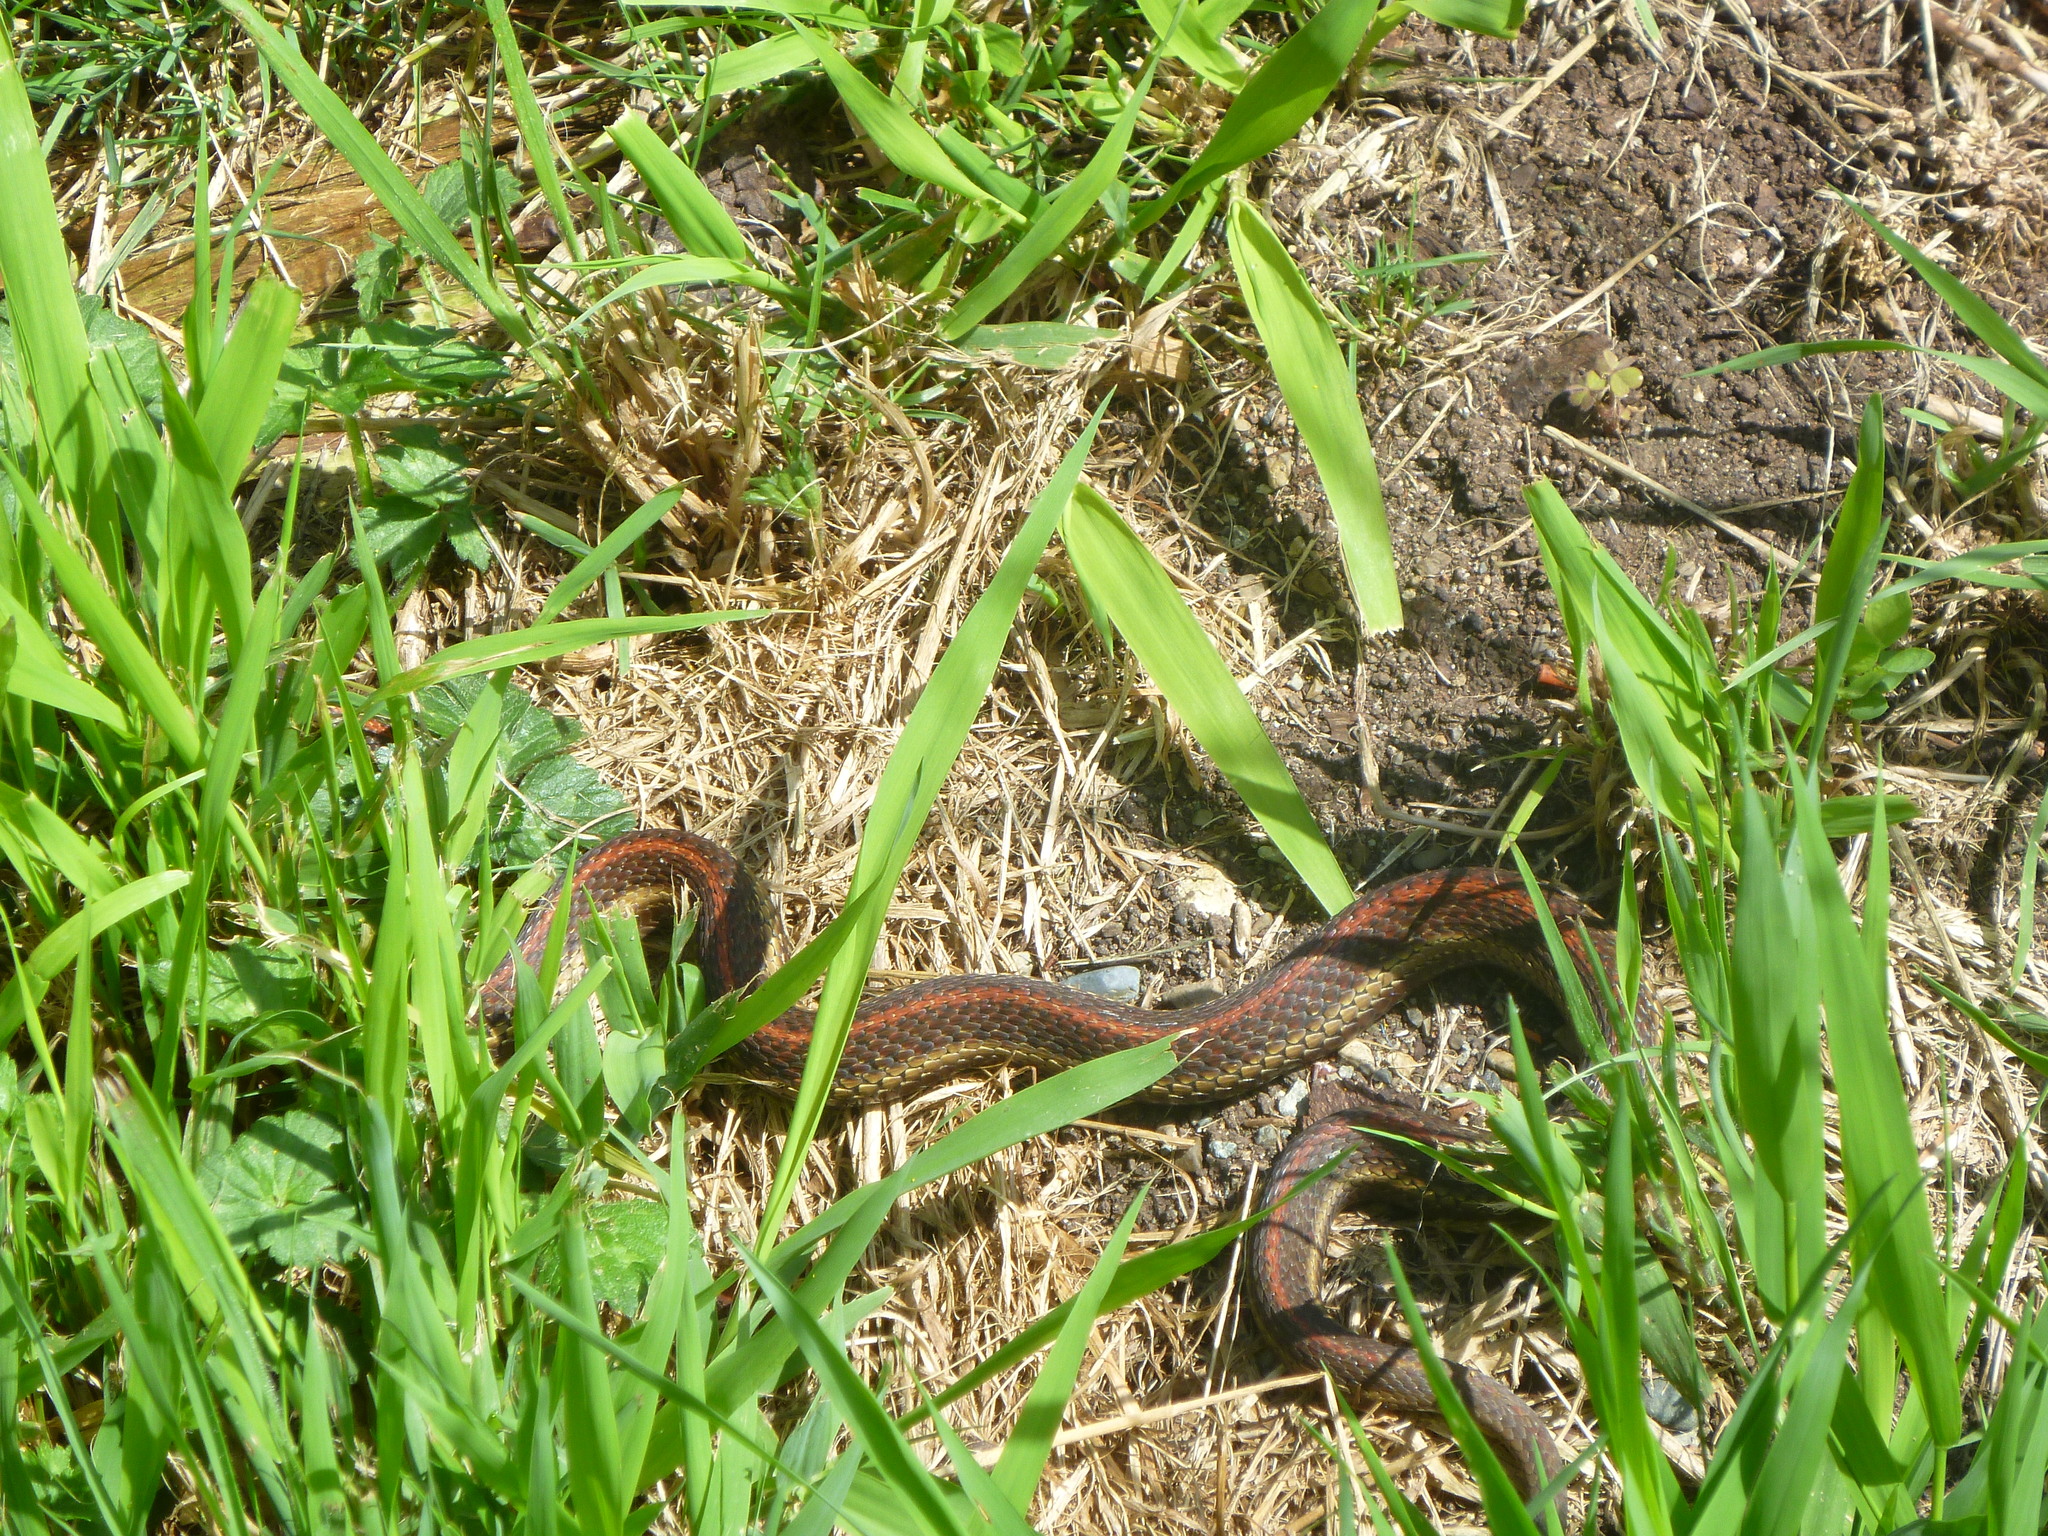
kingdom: Animalia
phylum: Chordata
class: Squamata
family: Colubridae
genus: Thamnophis
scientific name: Thamnophis ordinoides
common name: Northwestern garter snake
